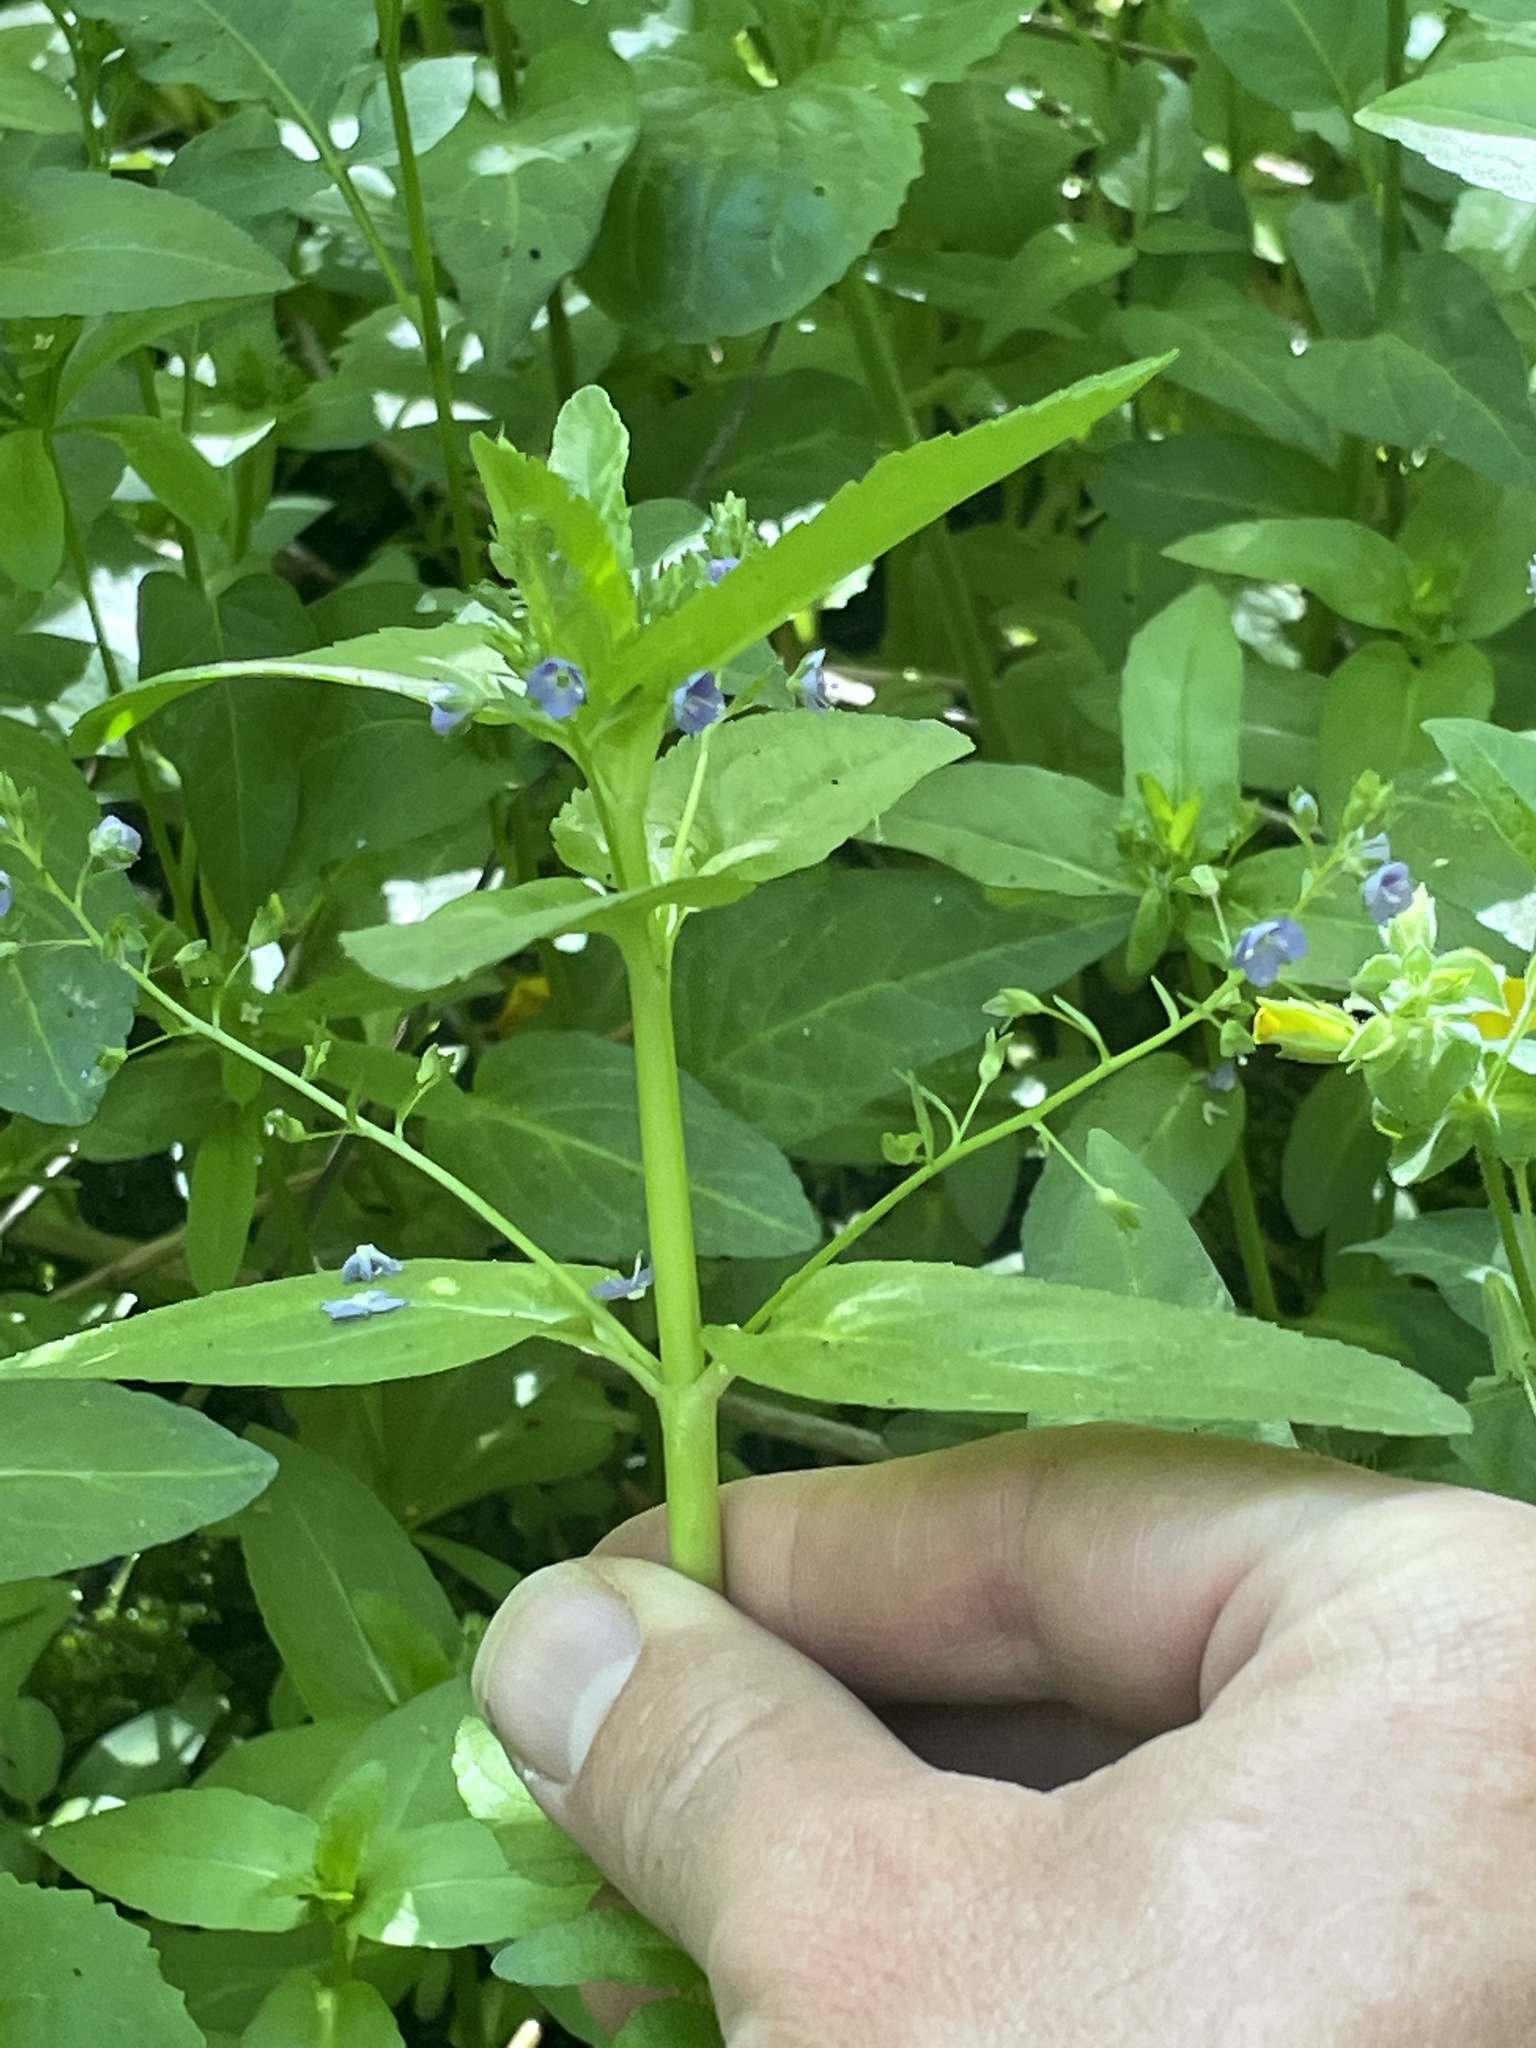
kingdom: Plantae
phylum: Tracheophyta
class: Magnoliopsida
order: Lamiales
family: Plantaginaceae
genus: Veronica
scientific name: Veronica americana
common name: American brooklime
